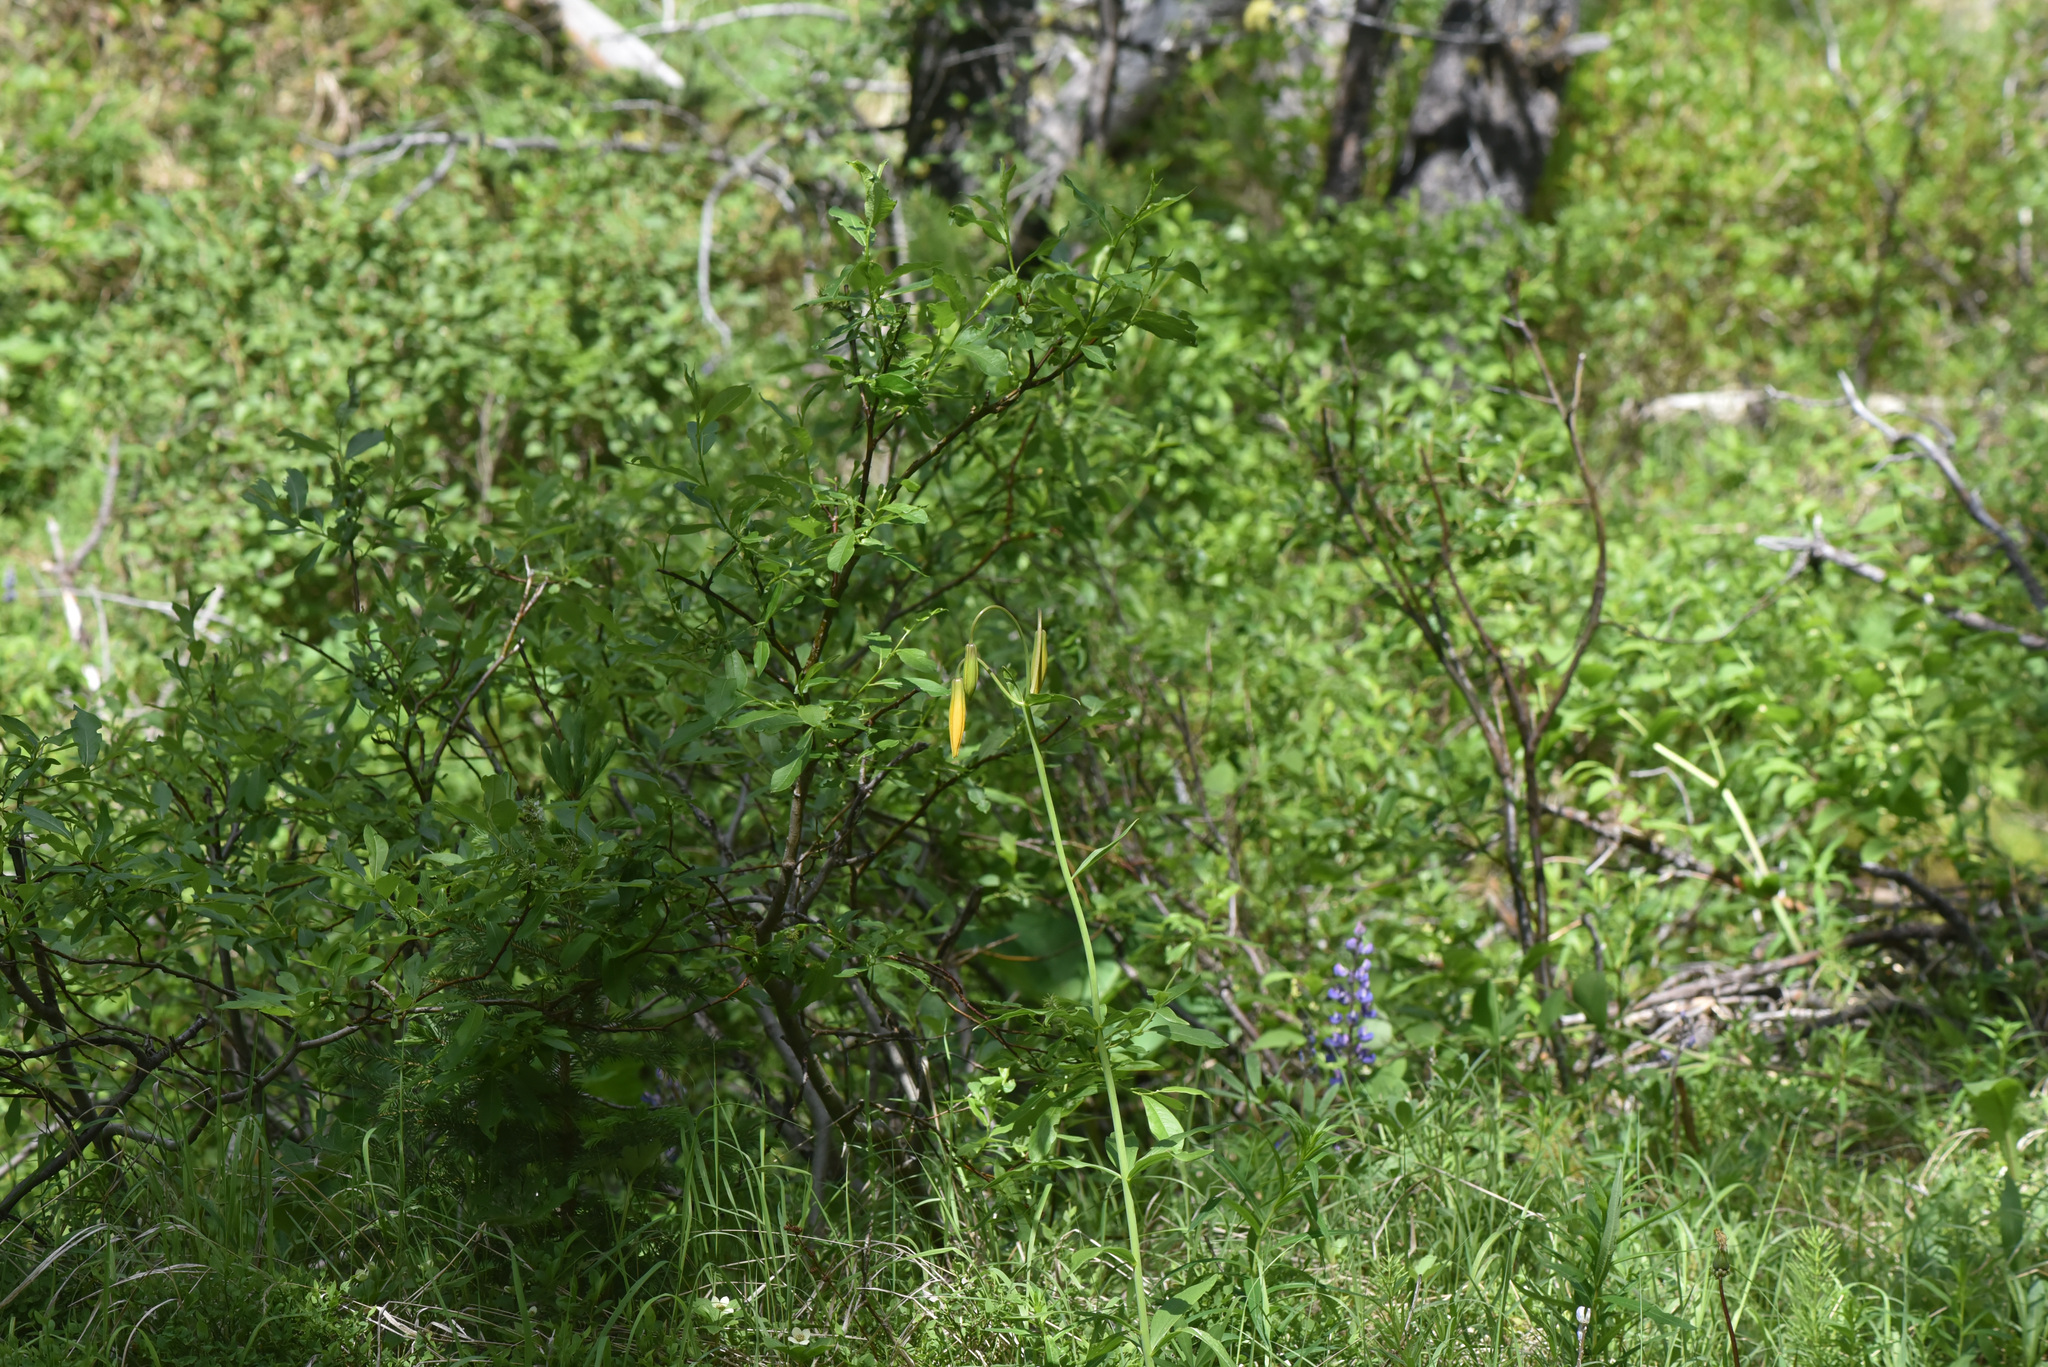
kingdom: Plantae
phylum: Tracheophyta
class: Liliopsida
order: Liliales
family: Liliaceae
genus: Lilium
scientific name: Lilium columbianum
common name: Columbia lily
